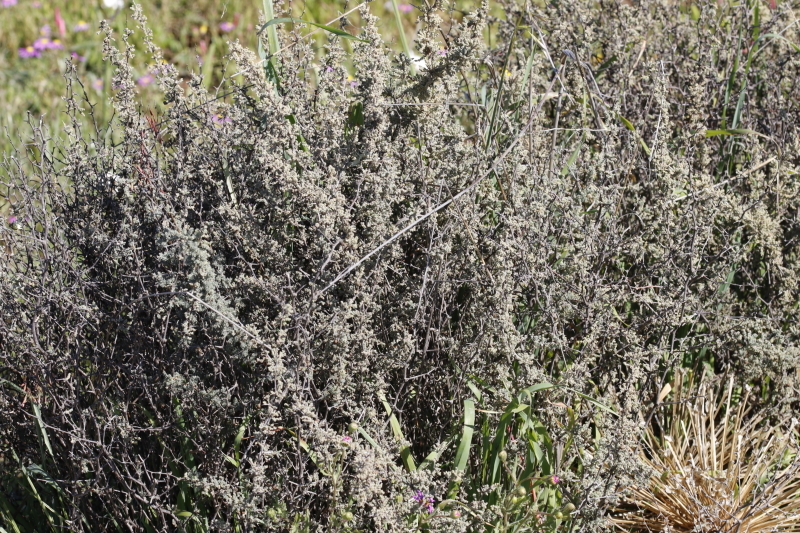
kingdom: Plantae
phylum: Tracheophyta
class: Liliopsida
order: Asparagales
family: Asparagaceae
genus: Asparagus
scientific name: Asparagus capensis
